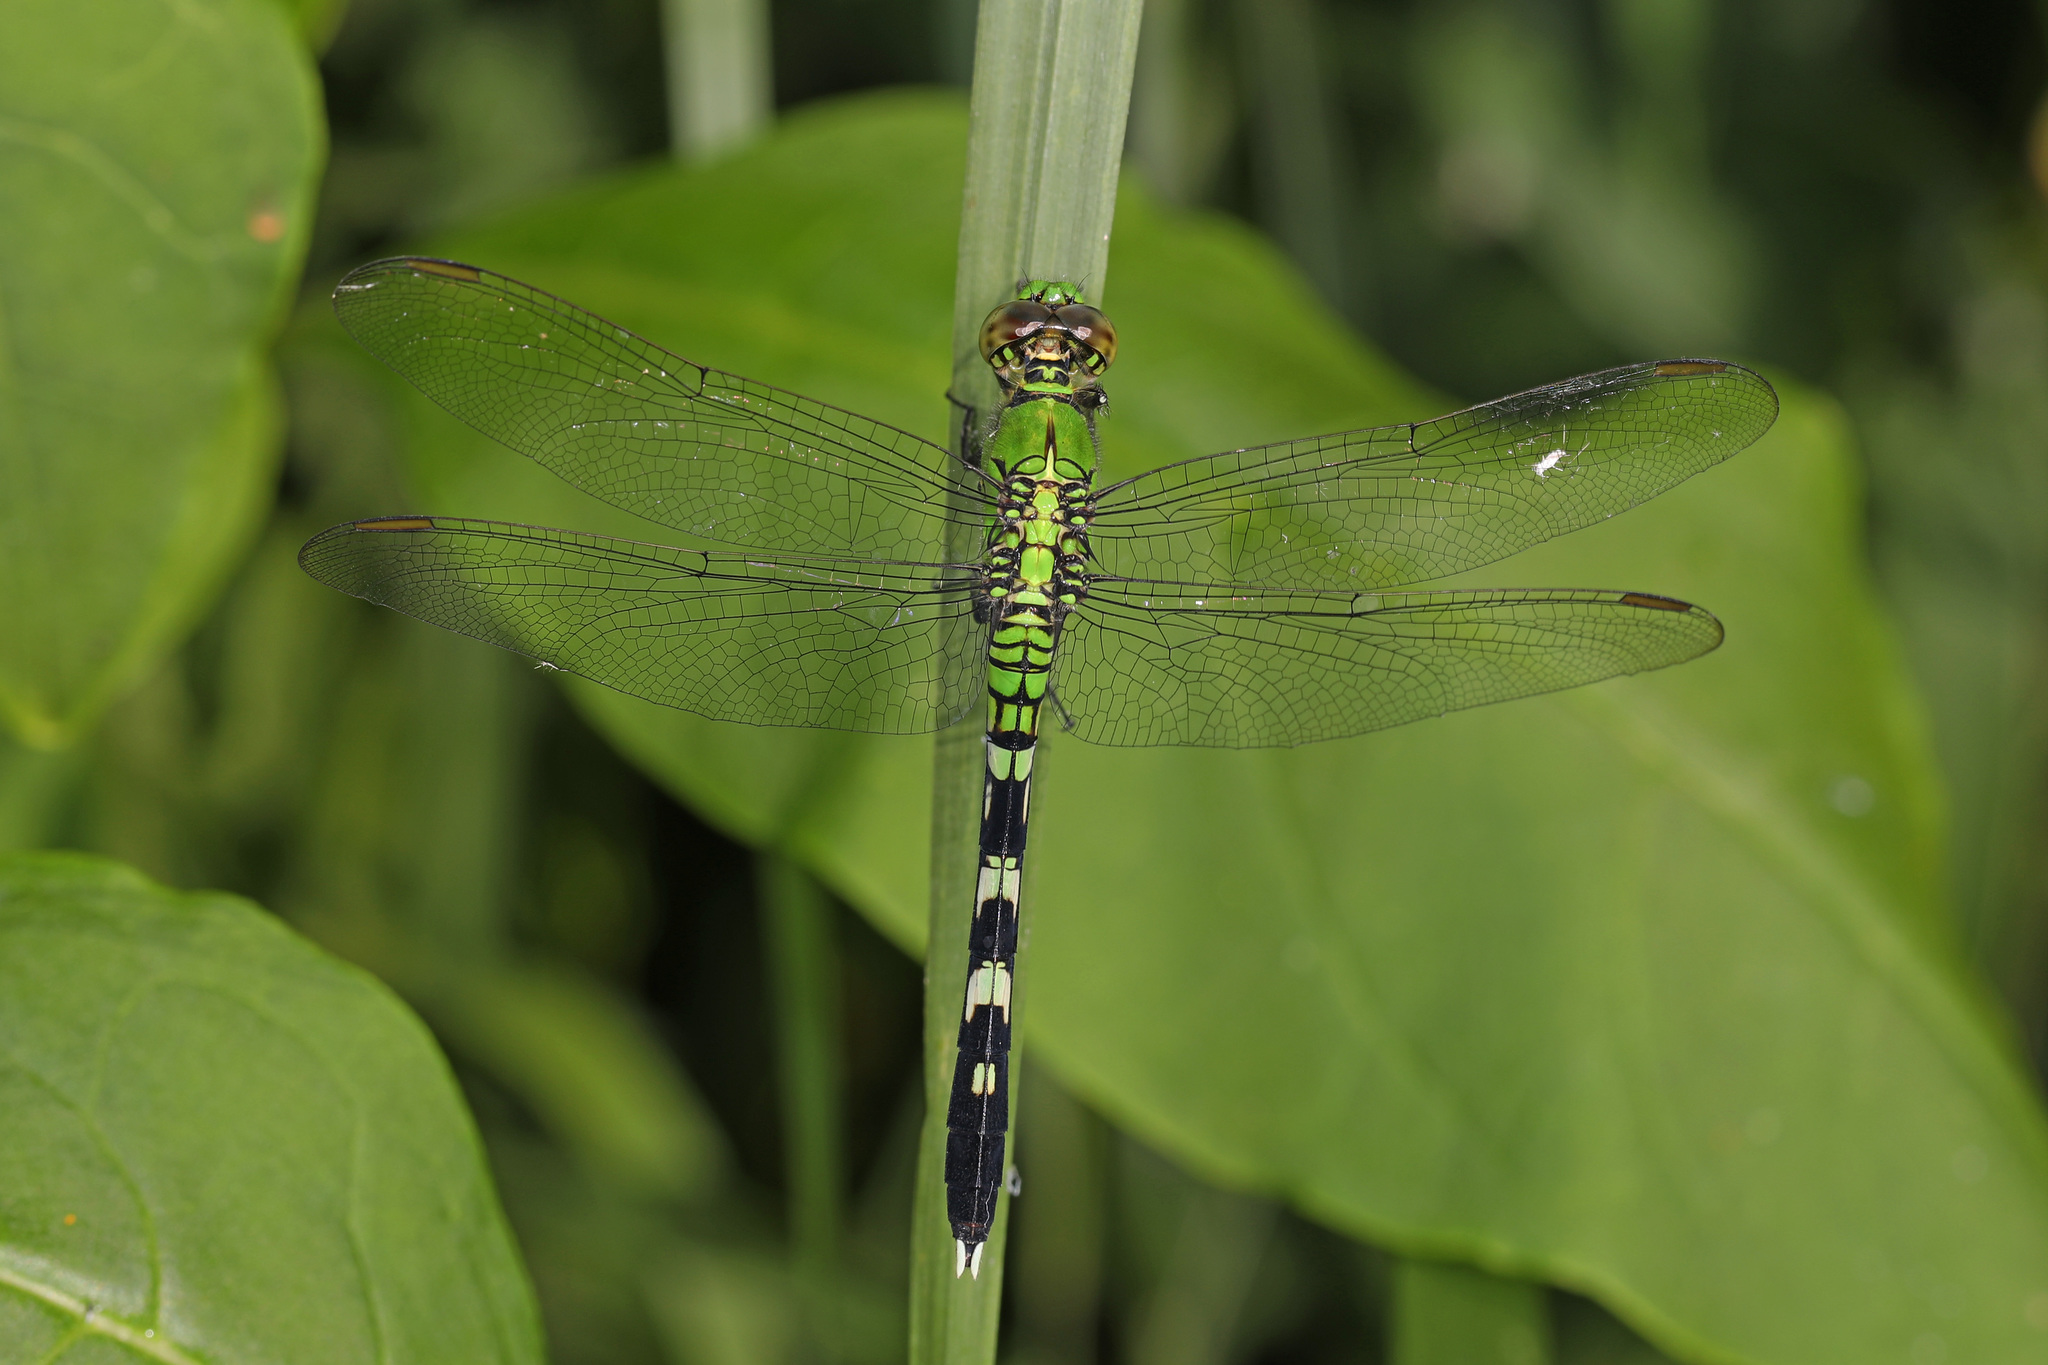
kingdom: Animalia
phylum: Arthropoda
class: Insecta
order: Odonata
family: Libellulidae
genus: Erythemis
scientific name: Erythemis simplicicollis
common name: Eastern pondhawk
